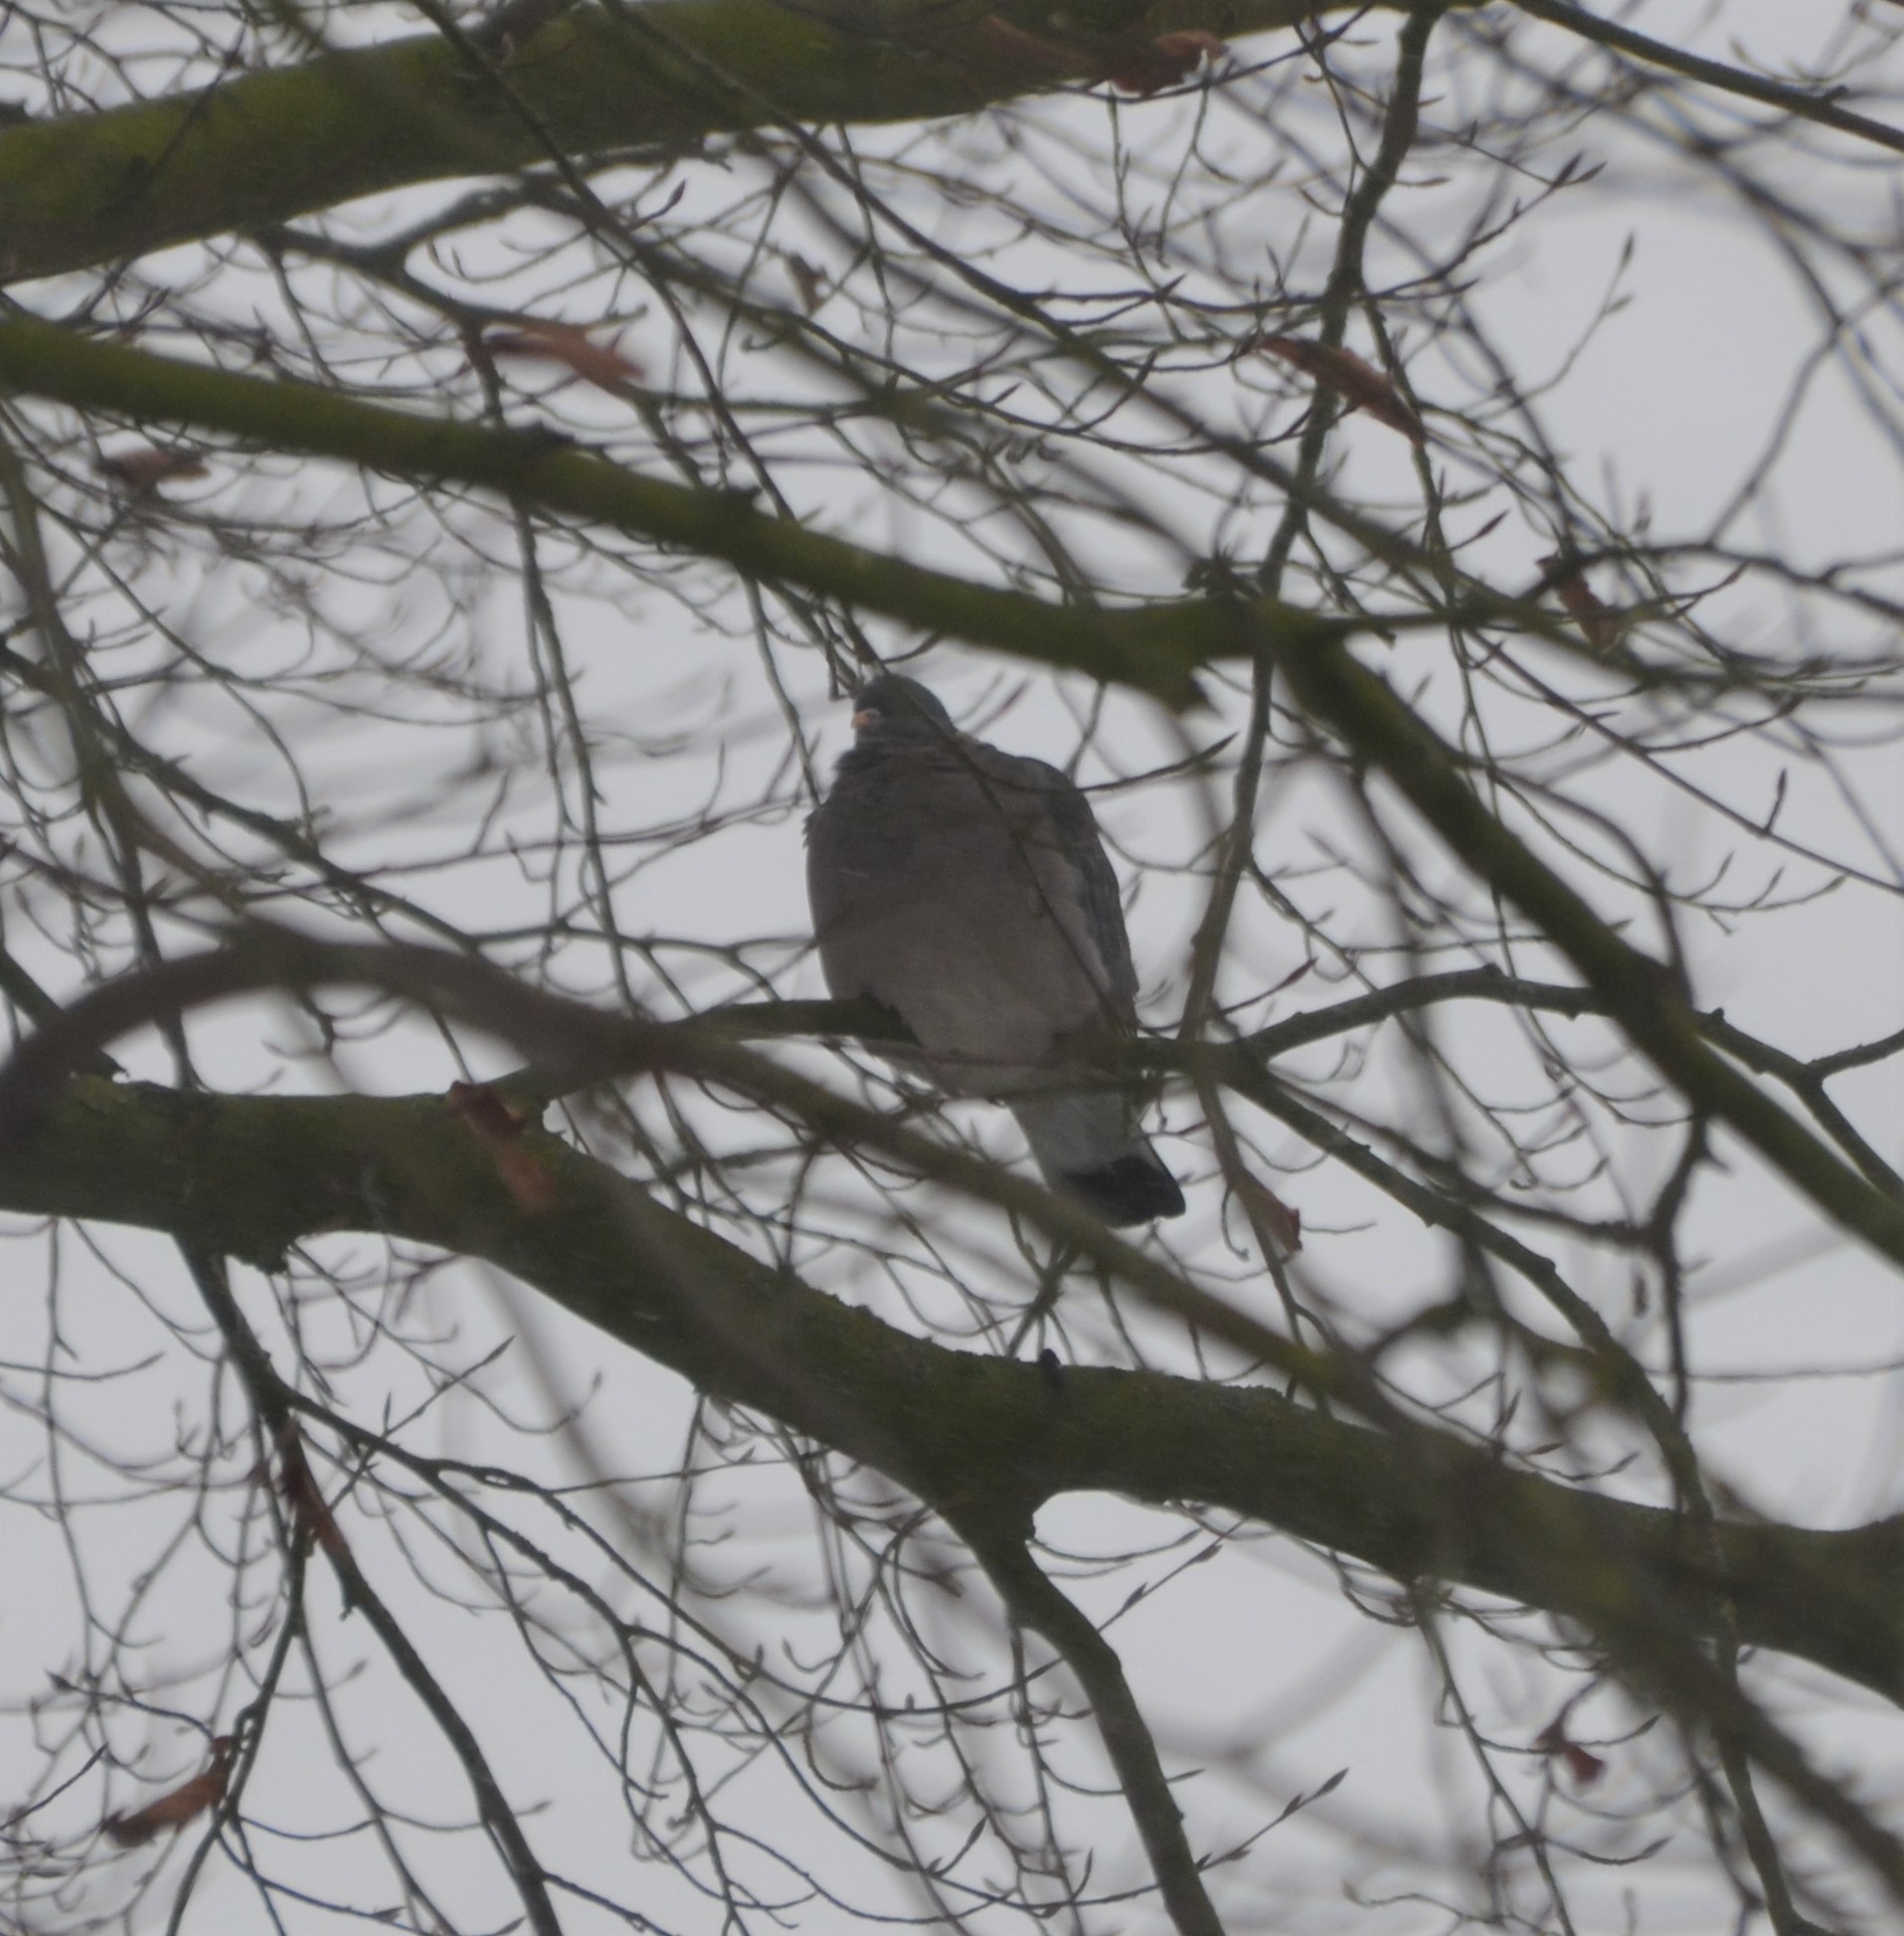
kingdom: Animalia
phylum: Chordata
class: Aves
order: Columbiformes
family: Columbidae
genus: Columba
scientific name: Columba palumbus
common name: Common wood pigeon
